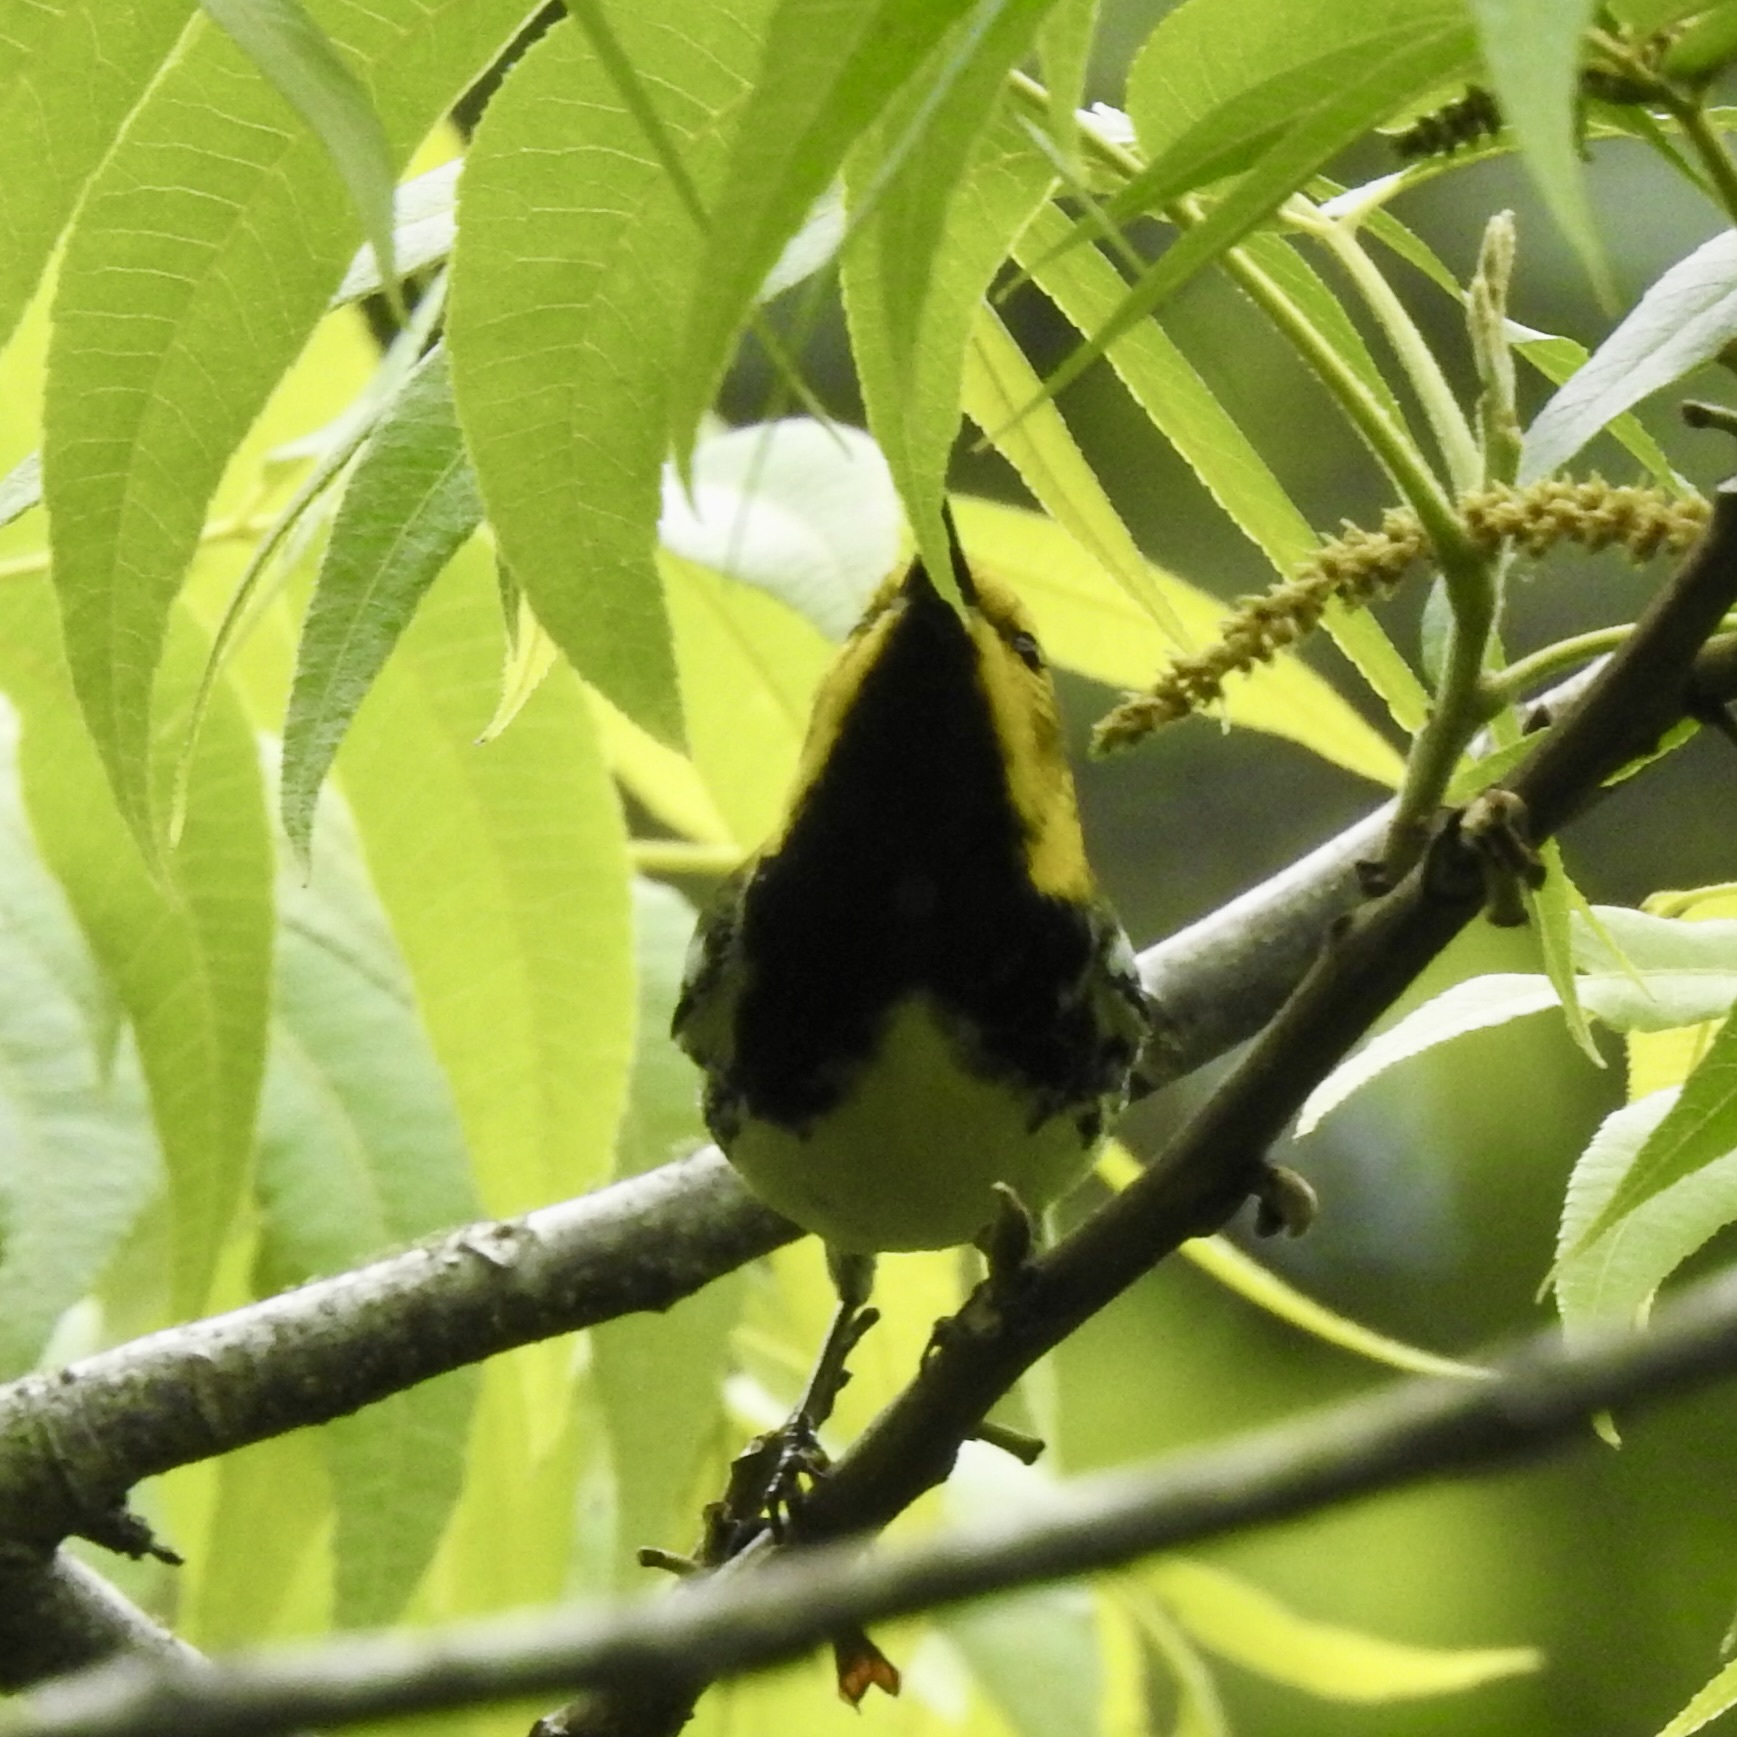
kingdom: Animalia
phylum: Chordata
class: Aves
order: Passeriformes
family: Parulidae
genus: Setophaga
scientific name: Setophaga virens
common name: Black-throated green warbler
